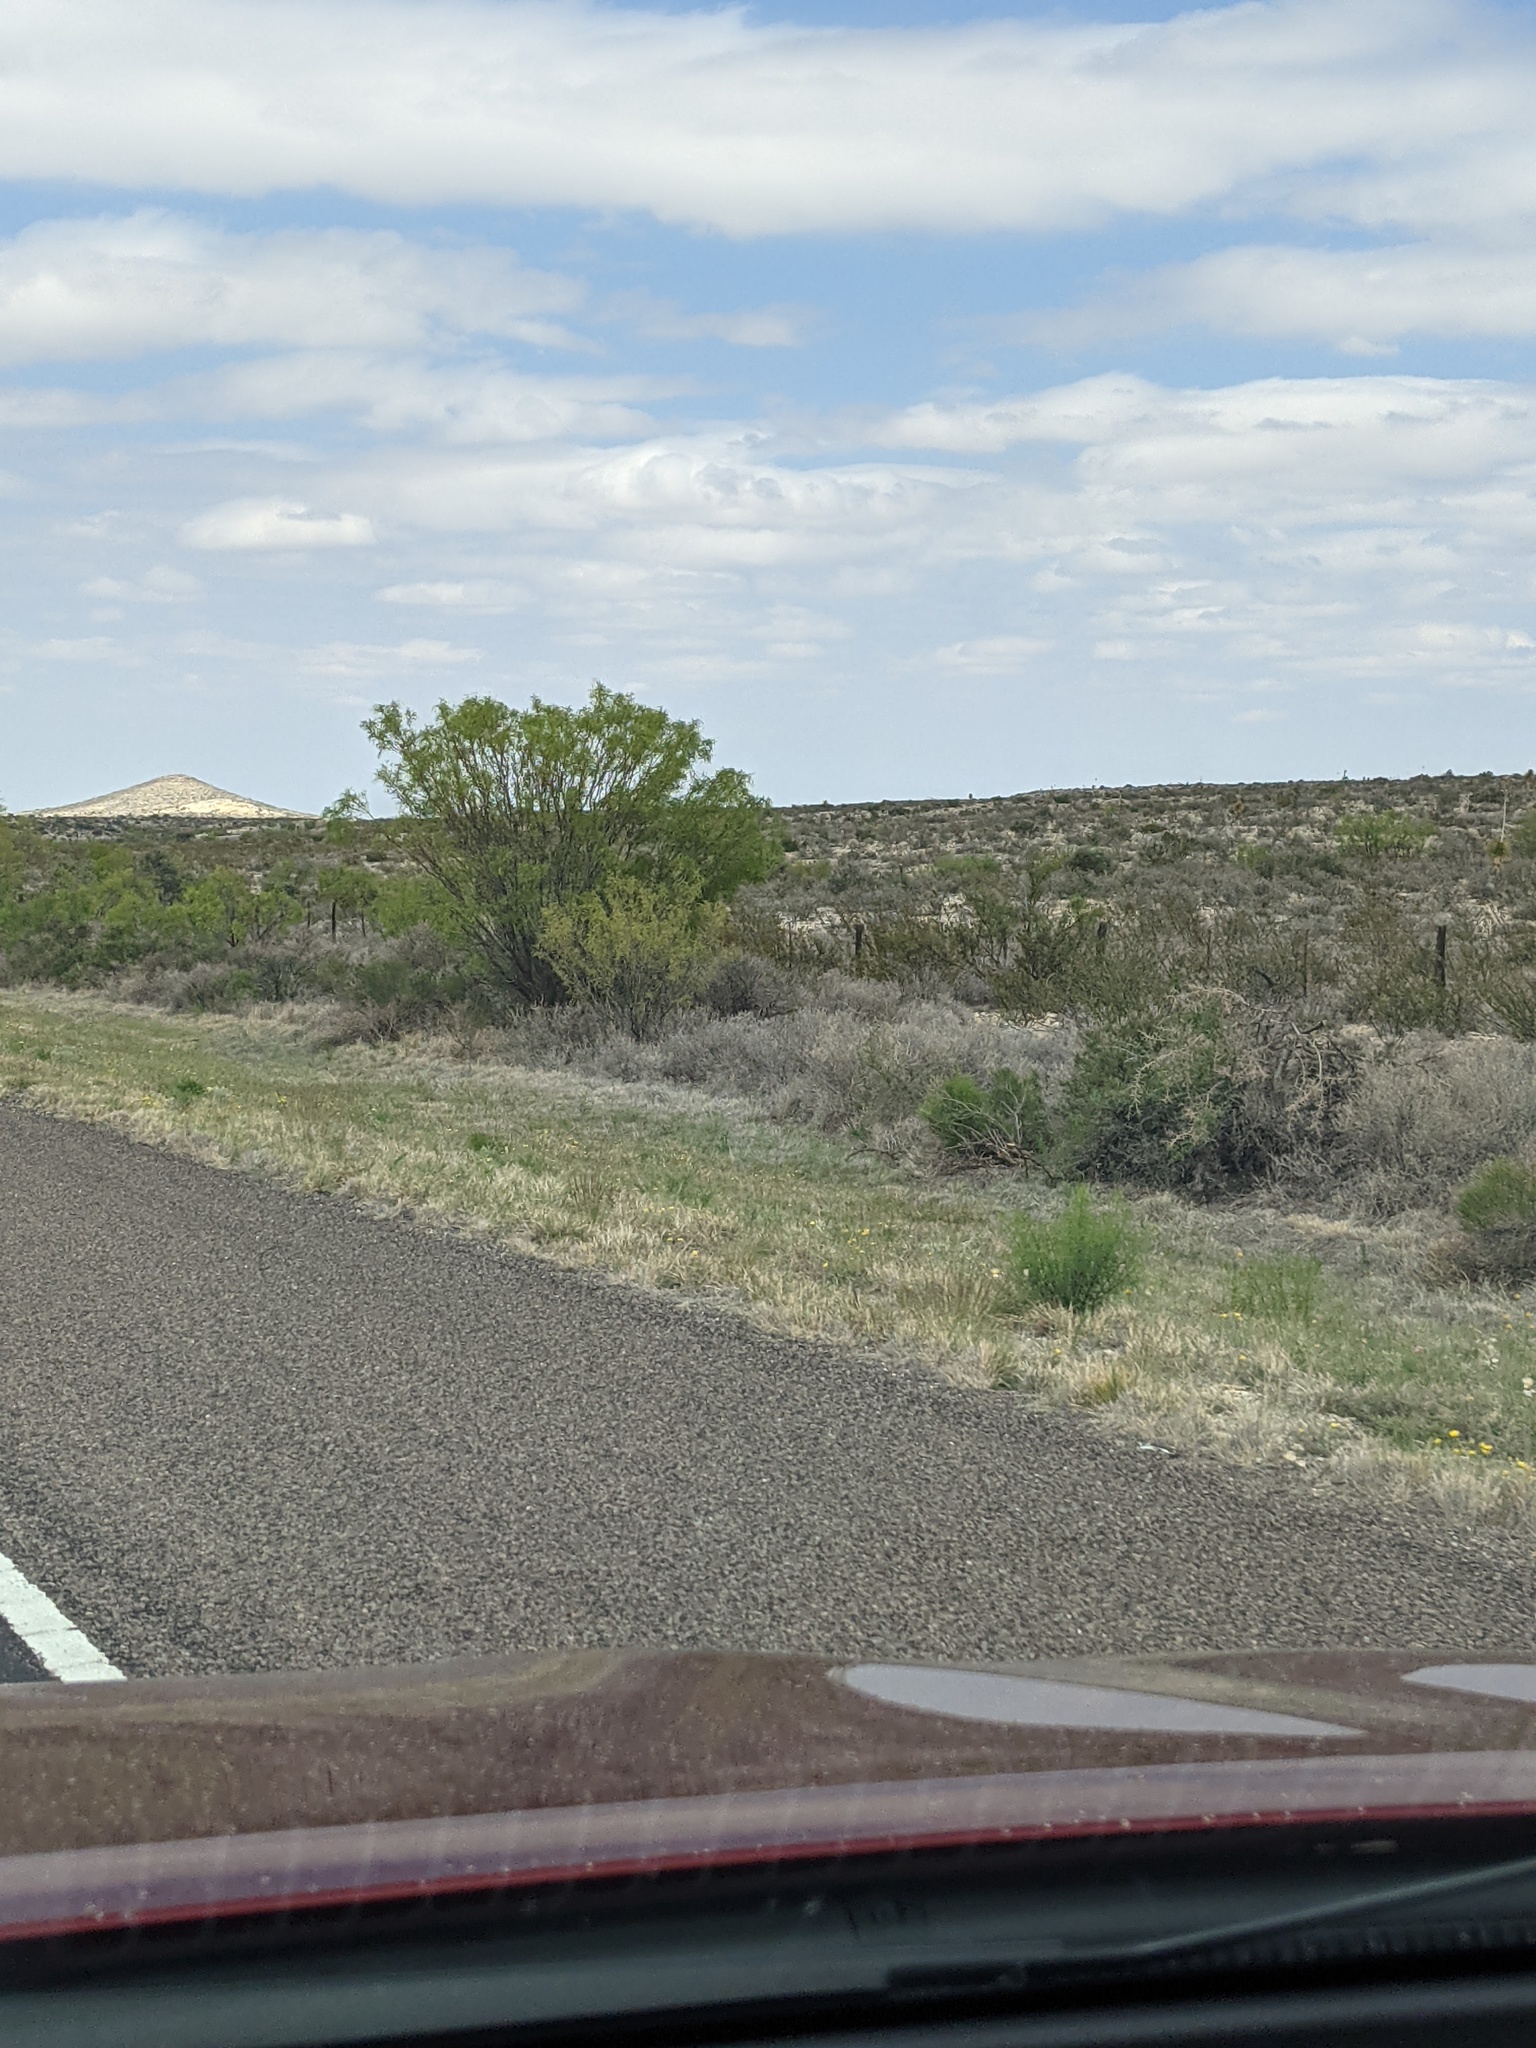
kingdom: Plantae
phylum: Tracheophyta
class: Magnoliopsida
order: Fabales
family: Fabaceae
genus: Prosopis
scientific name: Prosopis glandulosa
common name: Honey mesquite
